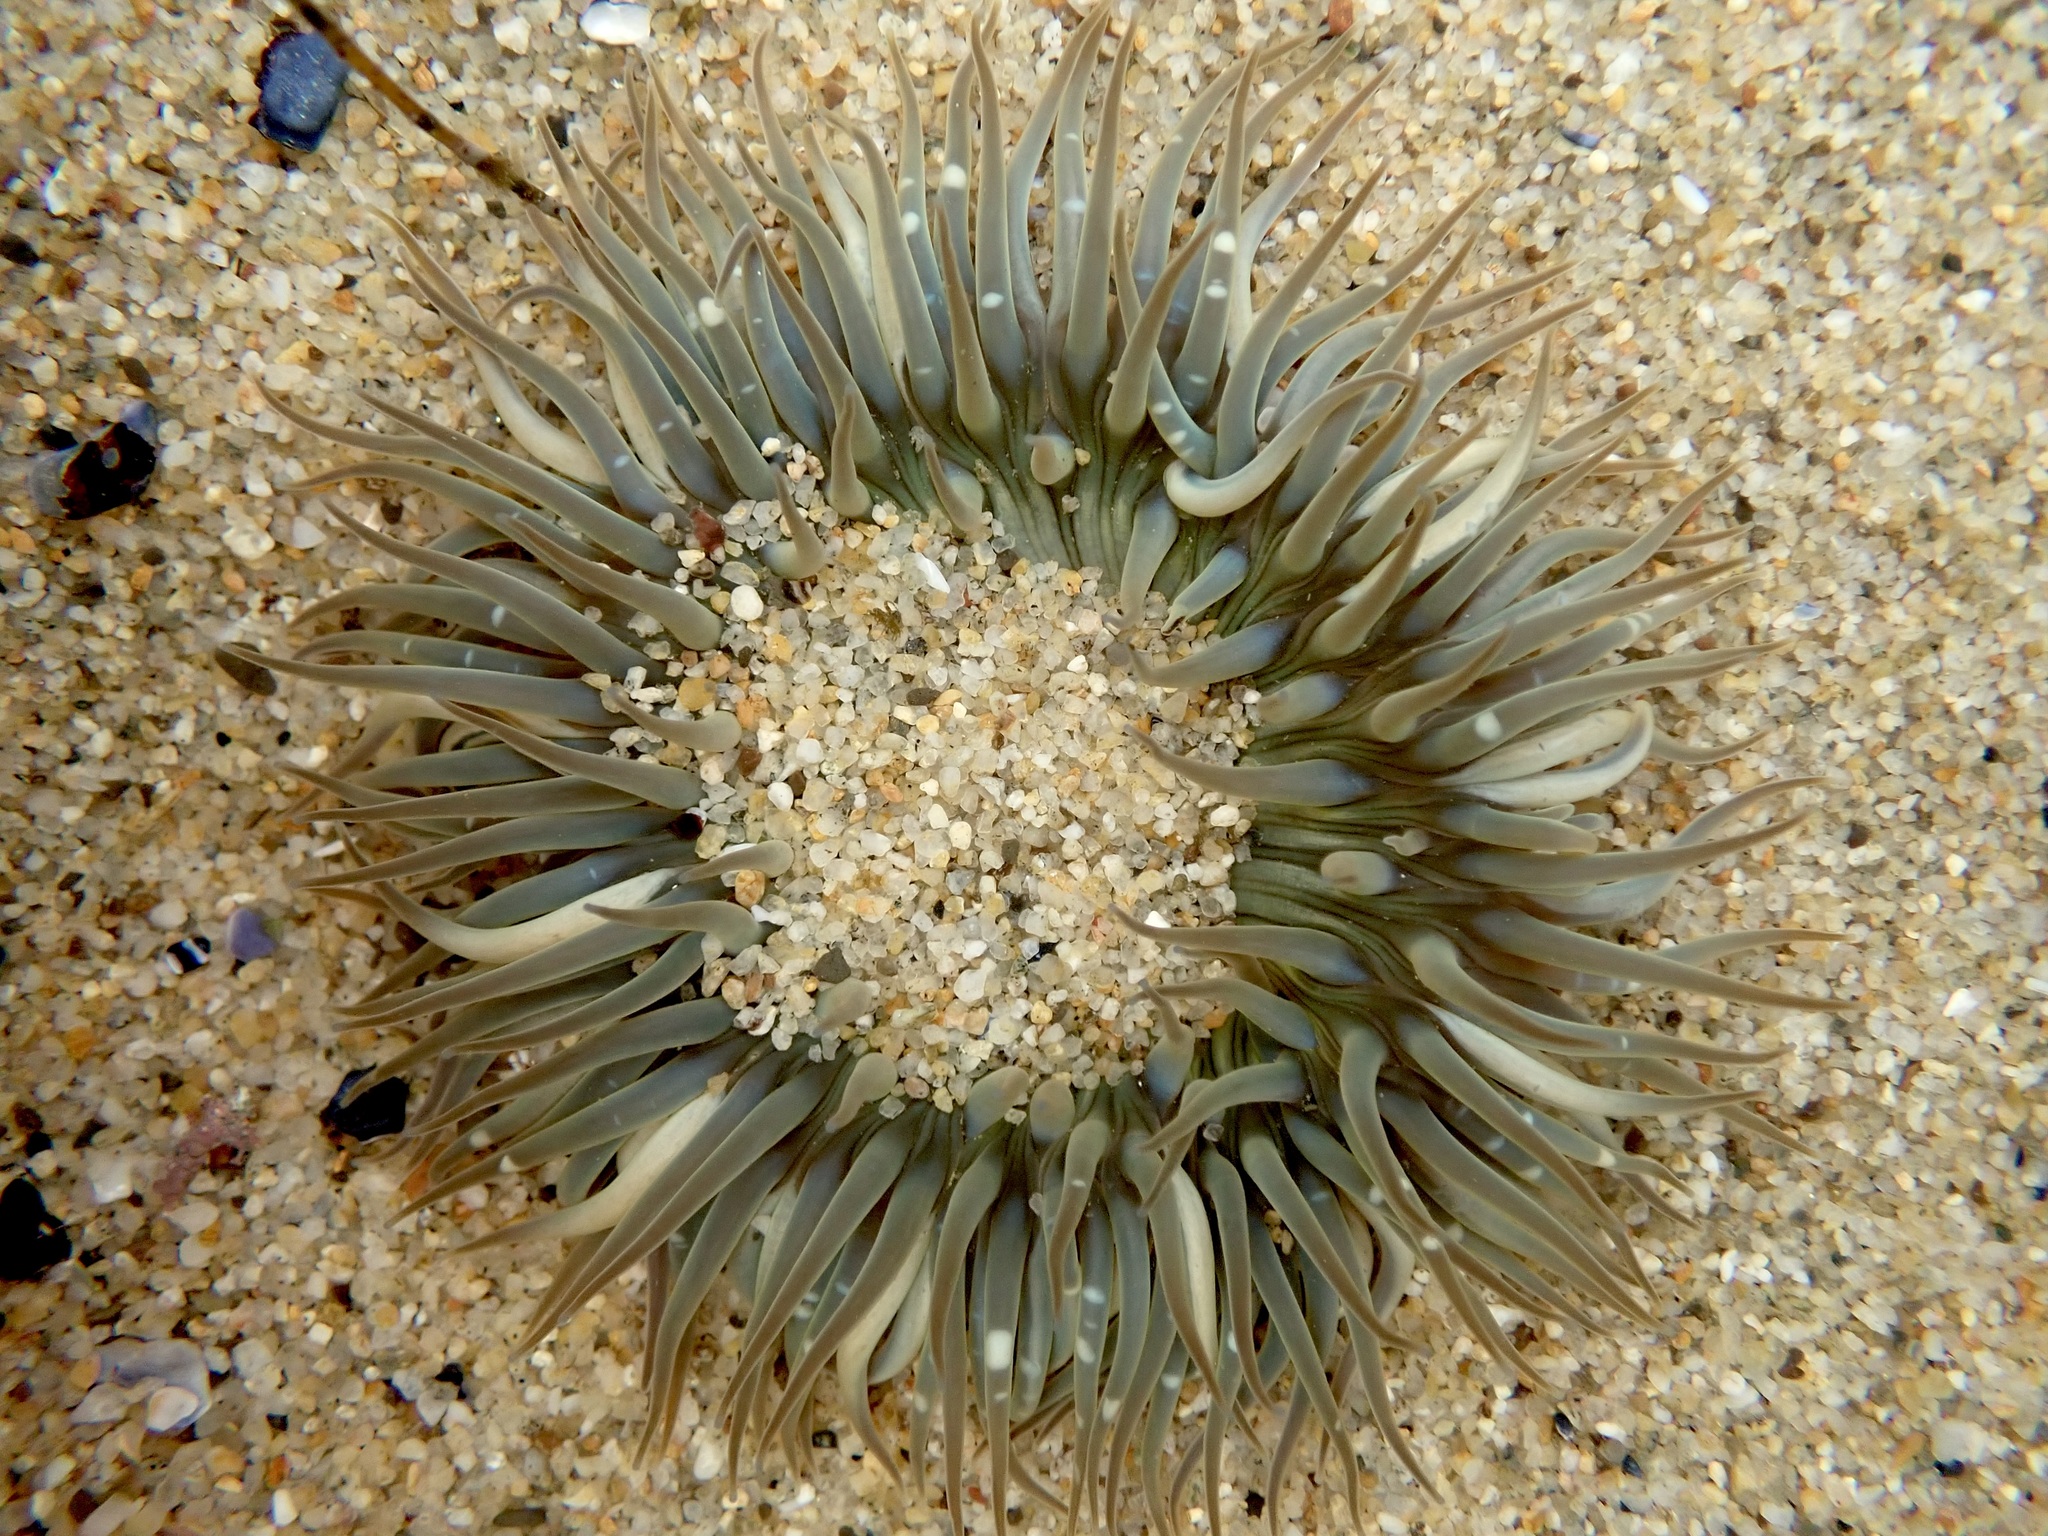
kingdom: Animalia
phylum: Cnidaria
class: Anthozoa
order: Actiniaria
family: Actiniidae
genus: Anthopleura
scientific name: Anthopleura sola
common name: Sun anemone
